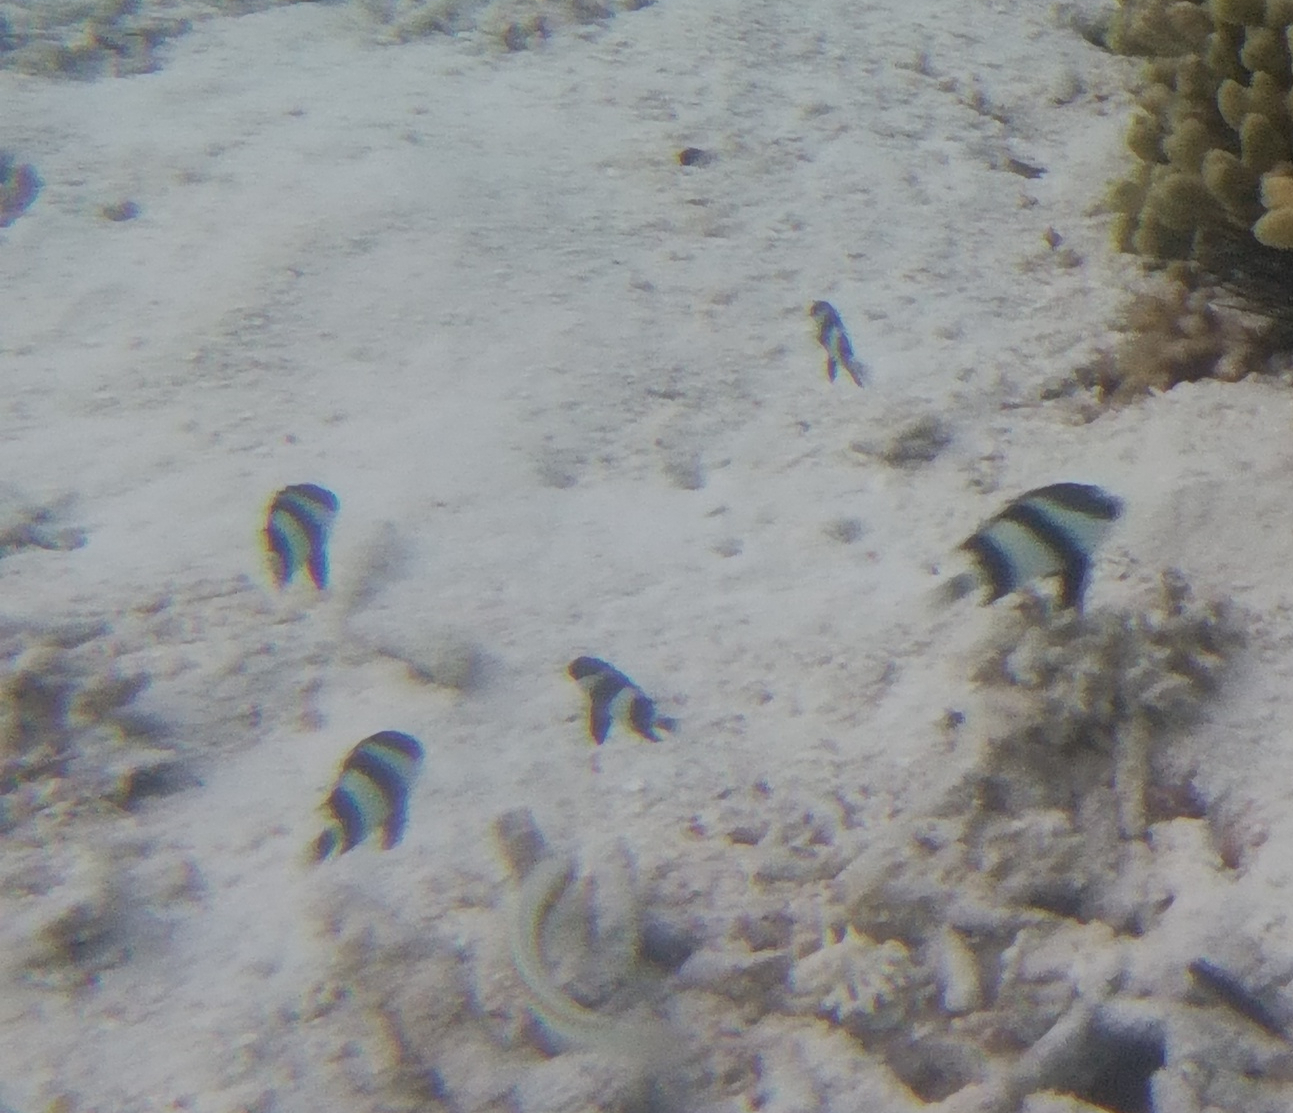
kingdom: Animalia
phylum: Chordata
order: Perciformes
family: Pomacentridae
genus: Dascyllus
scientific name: Dascyllus abudafur
